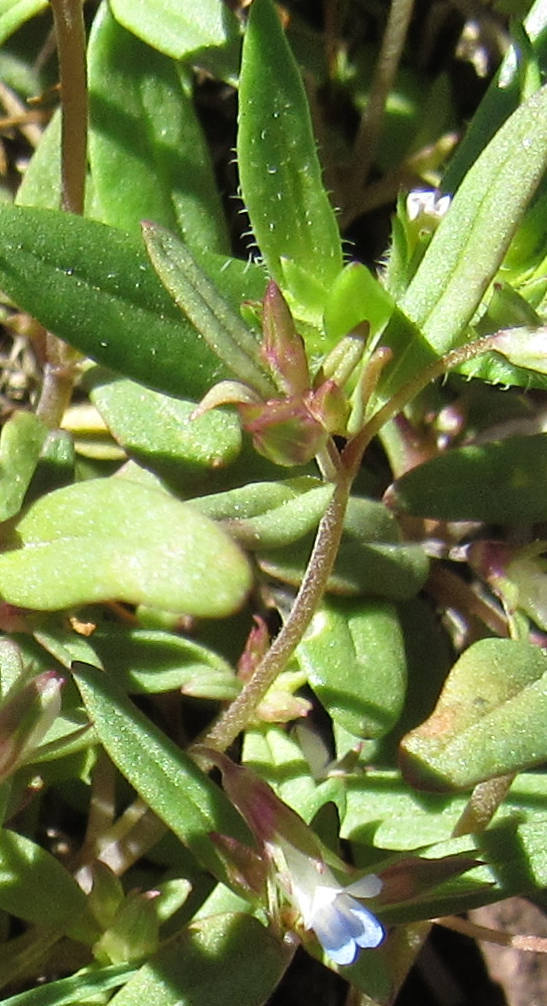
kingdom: Plantae
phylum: Tracheophyta
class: Magnoliopsida
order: Lamiales
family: Plantaginaceae
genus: Collinsia
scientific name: Collinsia parviflora
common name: Blue-lips
